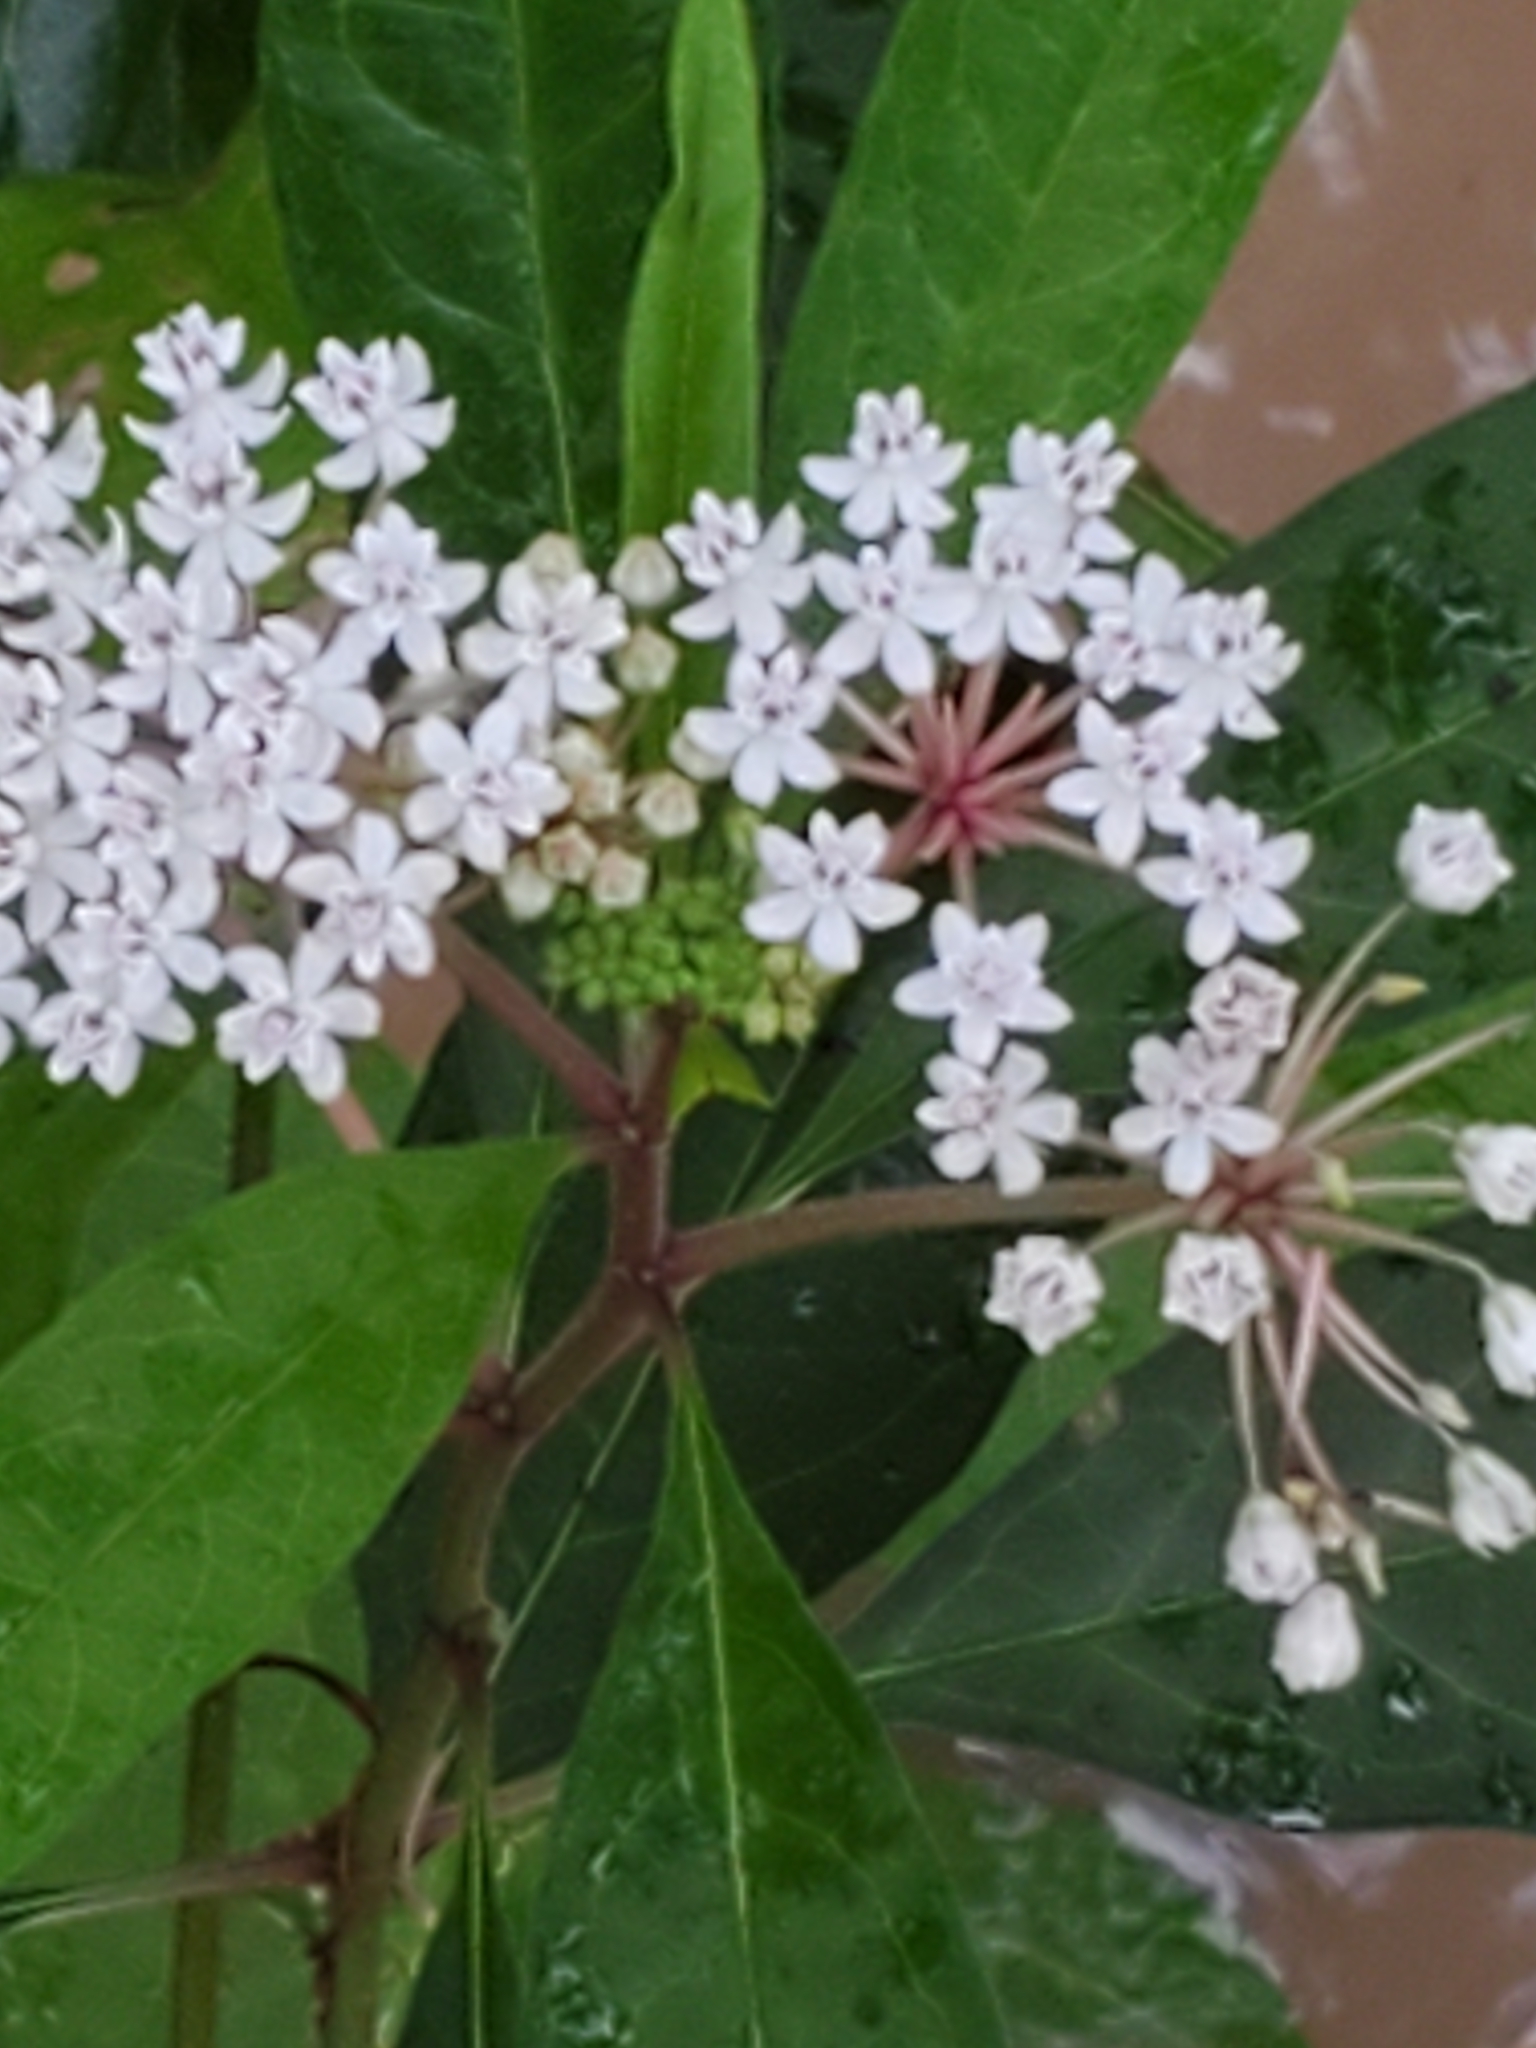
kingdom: Plantae
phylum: Tracheophyta
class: Magnoliopsida
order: Gentianales
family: Apocynaceae
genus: Asclepias
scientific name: Asclepias perennis
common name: Smooth-seed milkweed
